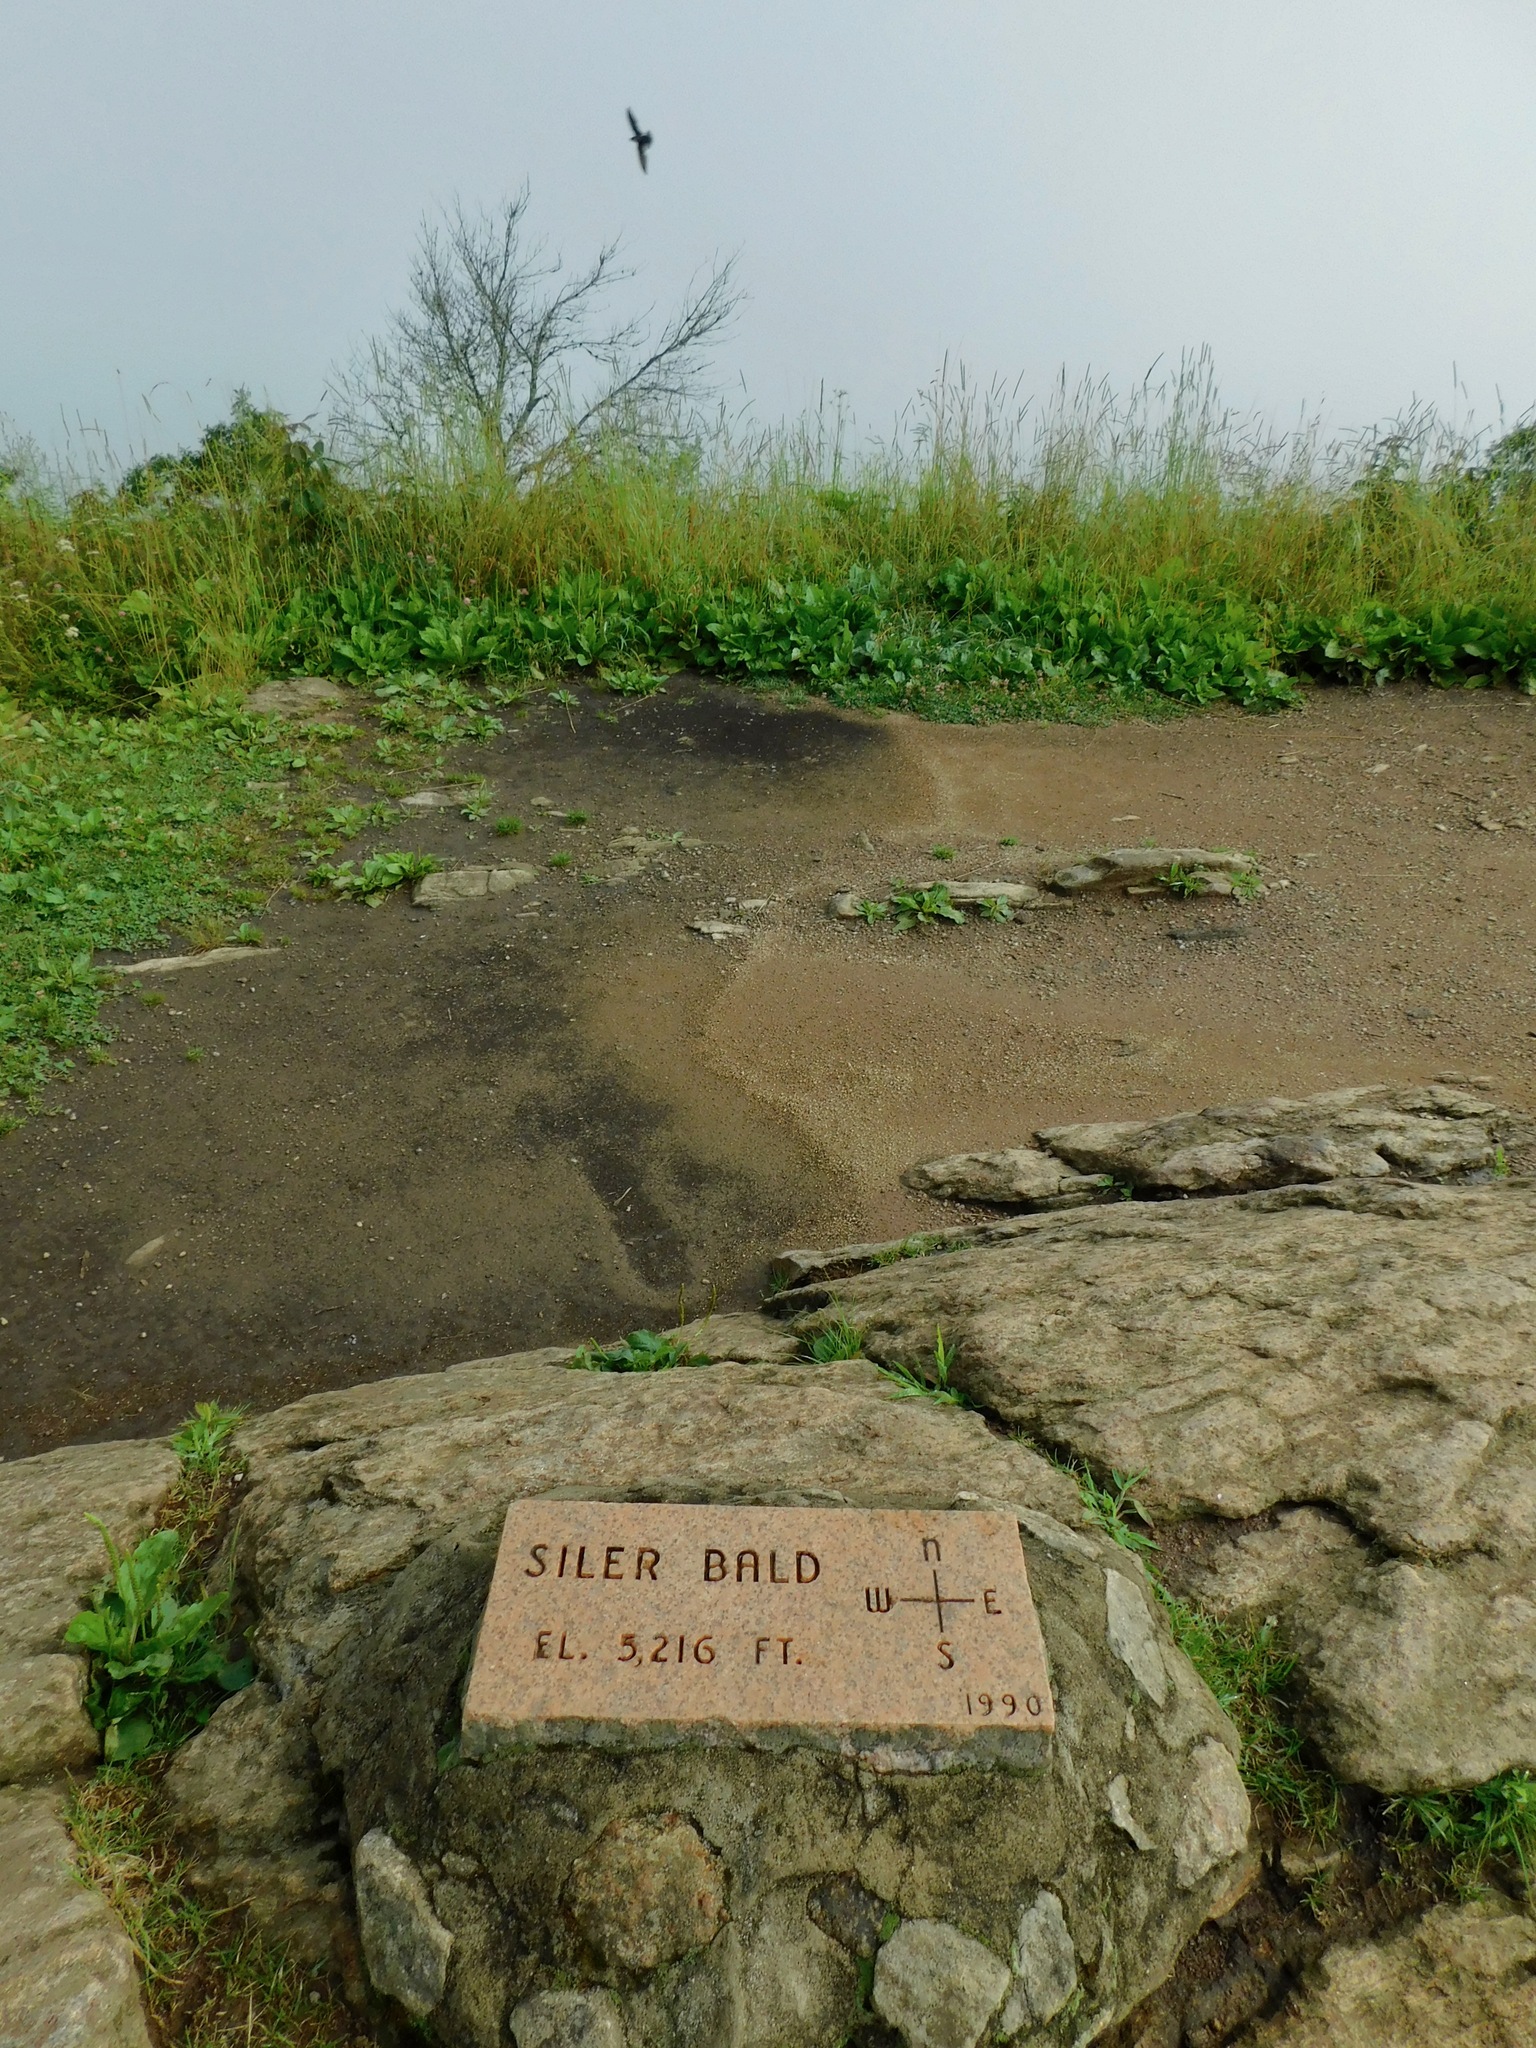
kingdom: Animalia
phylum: Chordata
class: Aves
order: Apodiformes
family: Apodidae
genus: Chaetura
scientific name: Chaetura pelagica
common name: Chimney swift
